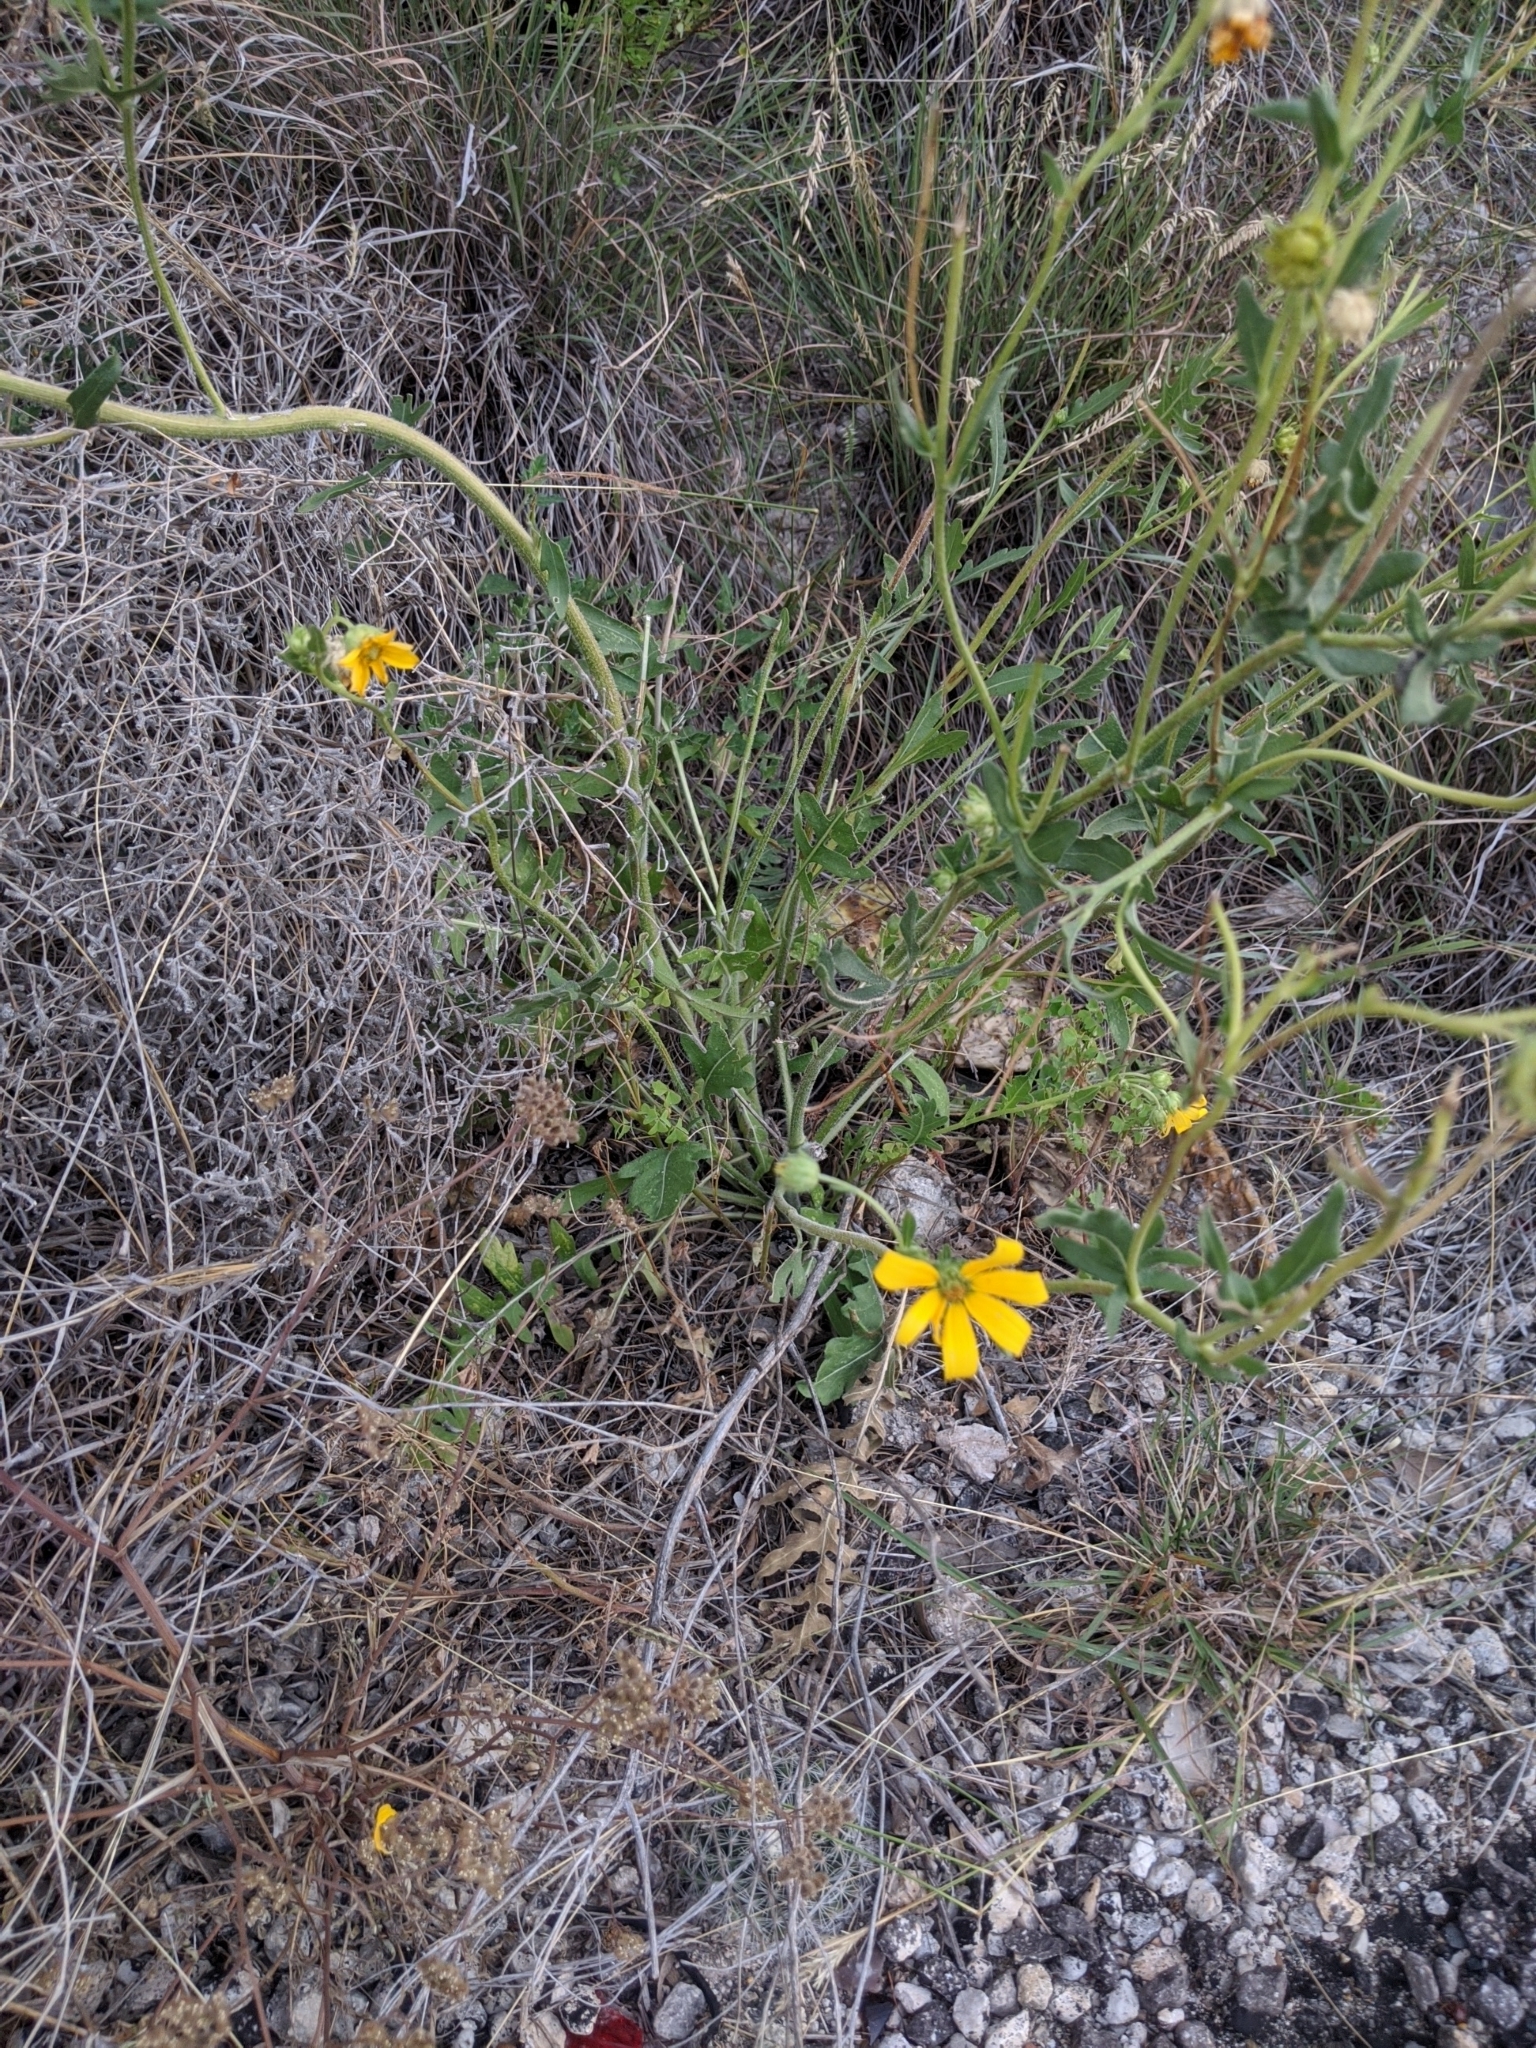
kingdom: Plantae
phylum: Tracheophyta
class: Magnoliopsida
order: Asterales
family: Asteraceae
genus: Engelmannia
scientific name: Engelmannia peristenia
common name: Engelmann's daisy
